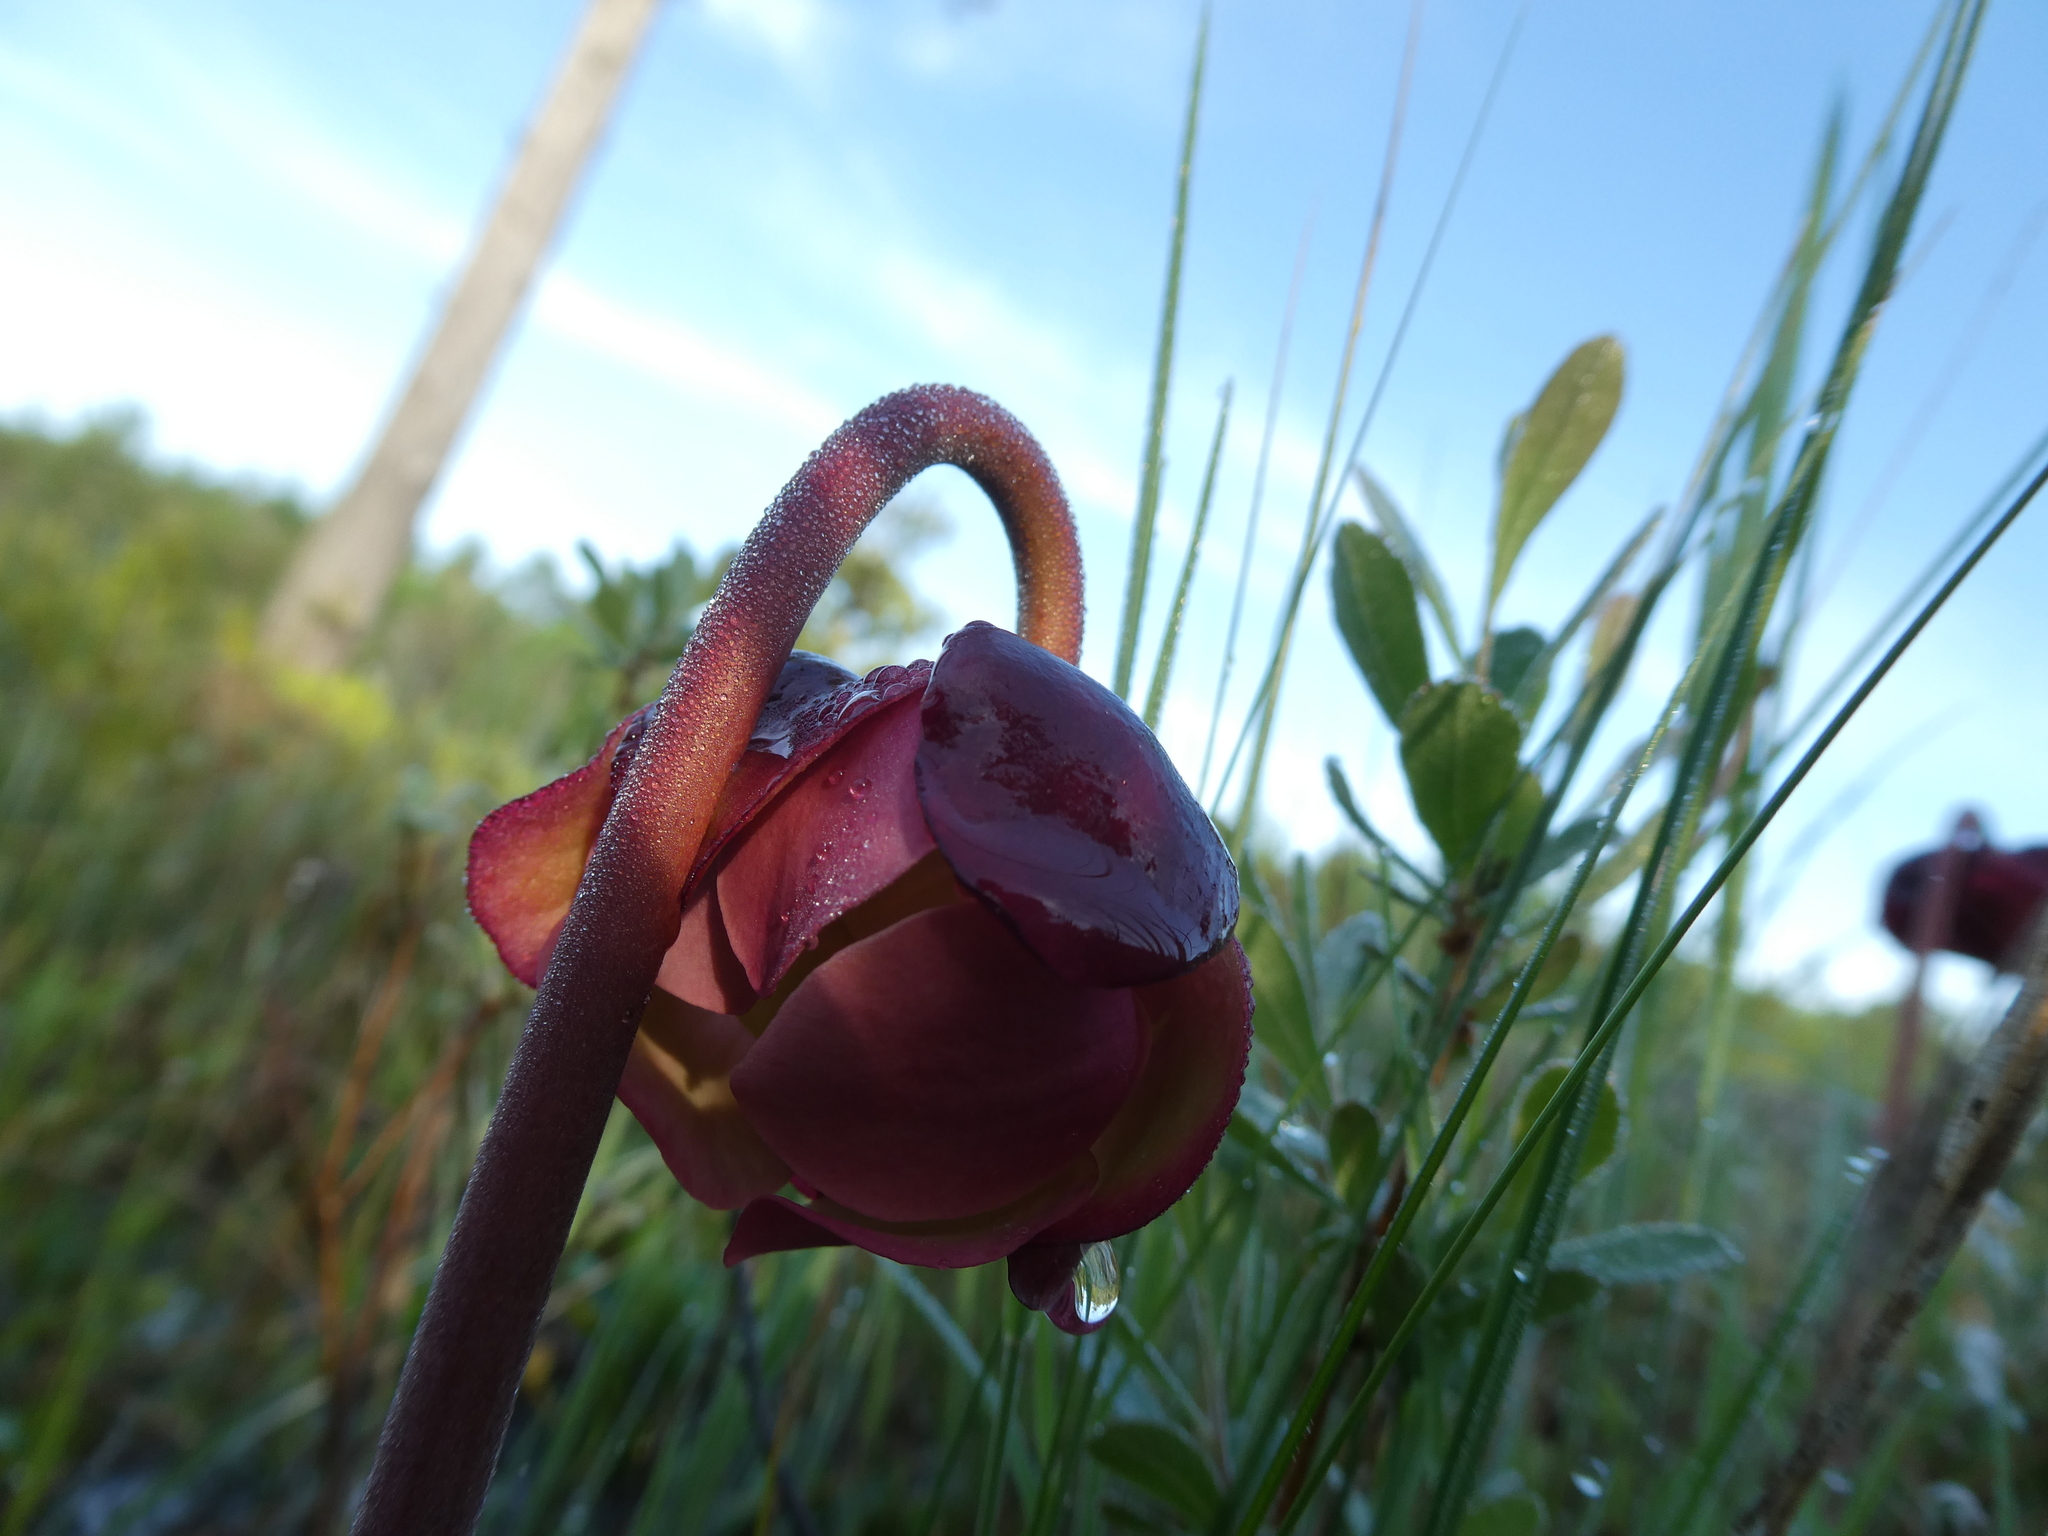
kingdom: Plantae
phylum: Tracheophyta
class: Magnoliopsida
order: Ericales
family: Sarraceniaceae
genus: Sarracenia
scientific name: Sarracenia purpurea
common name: Pitcherplant
